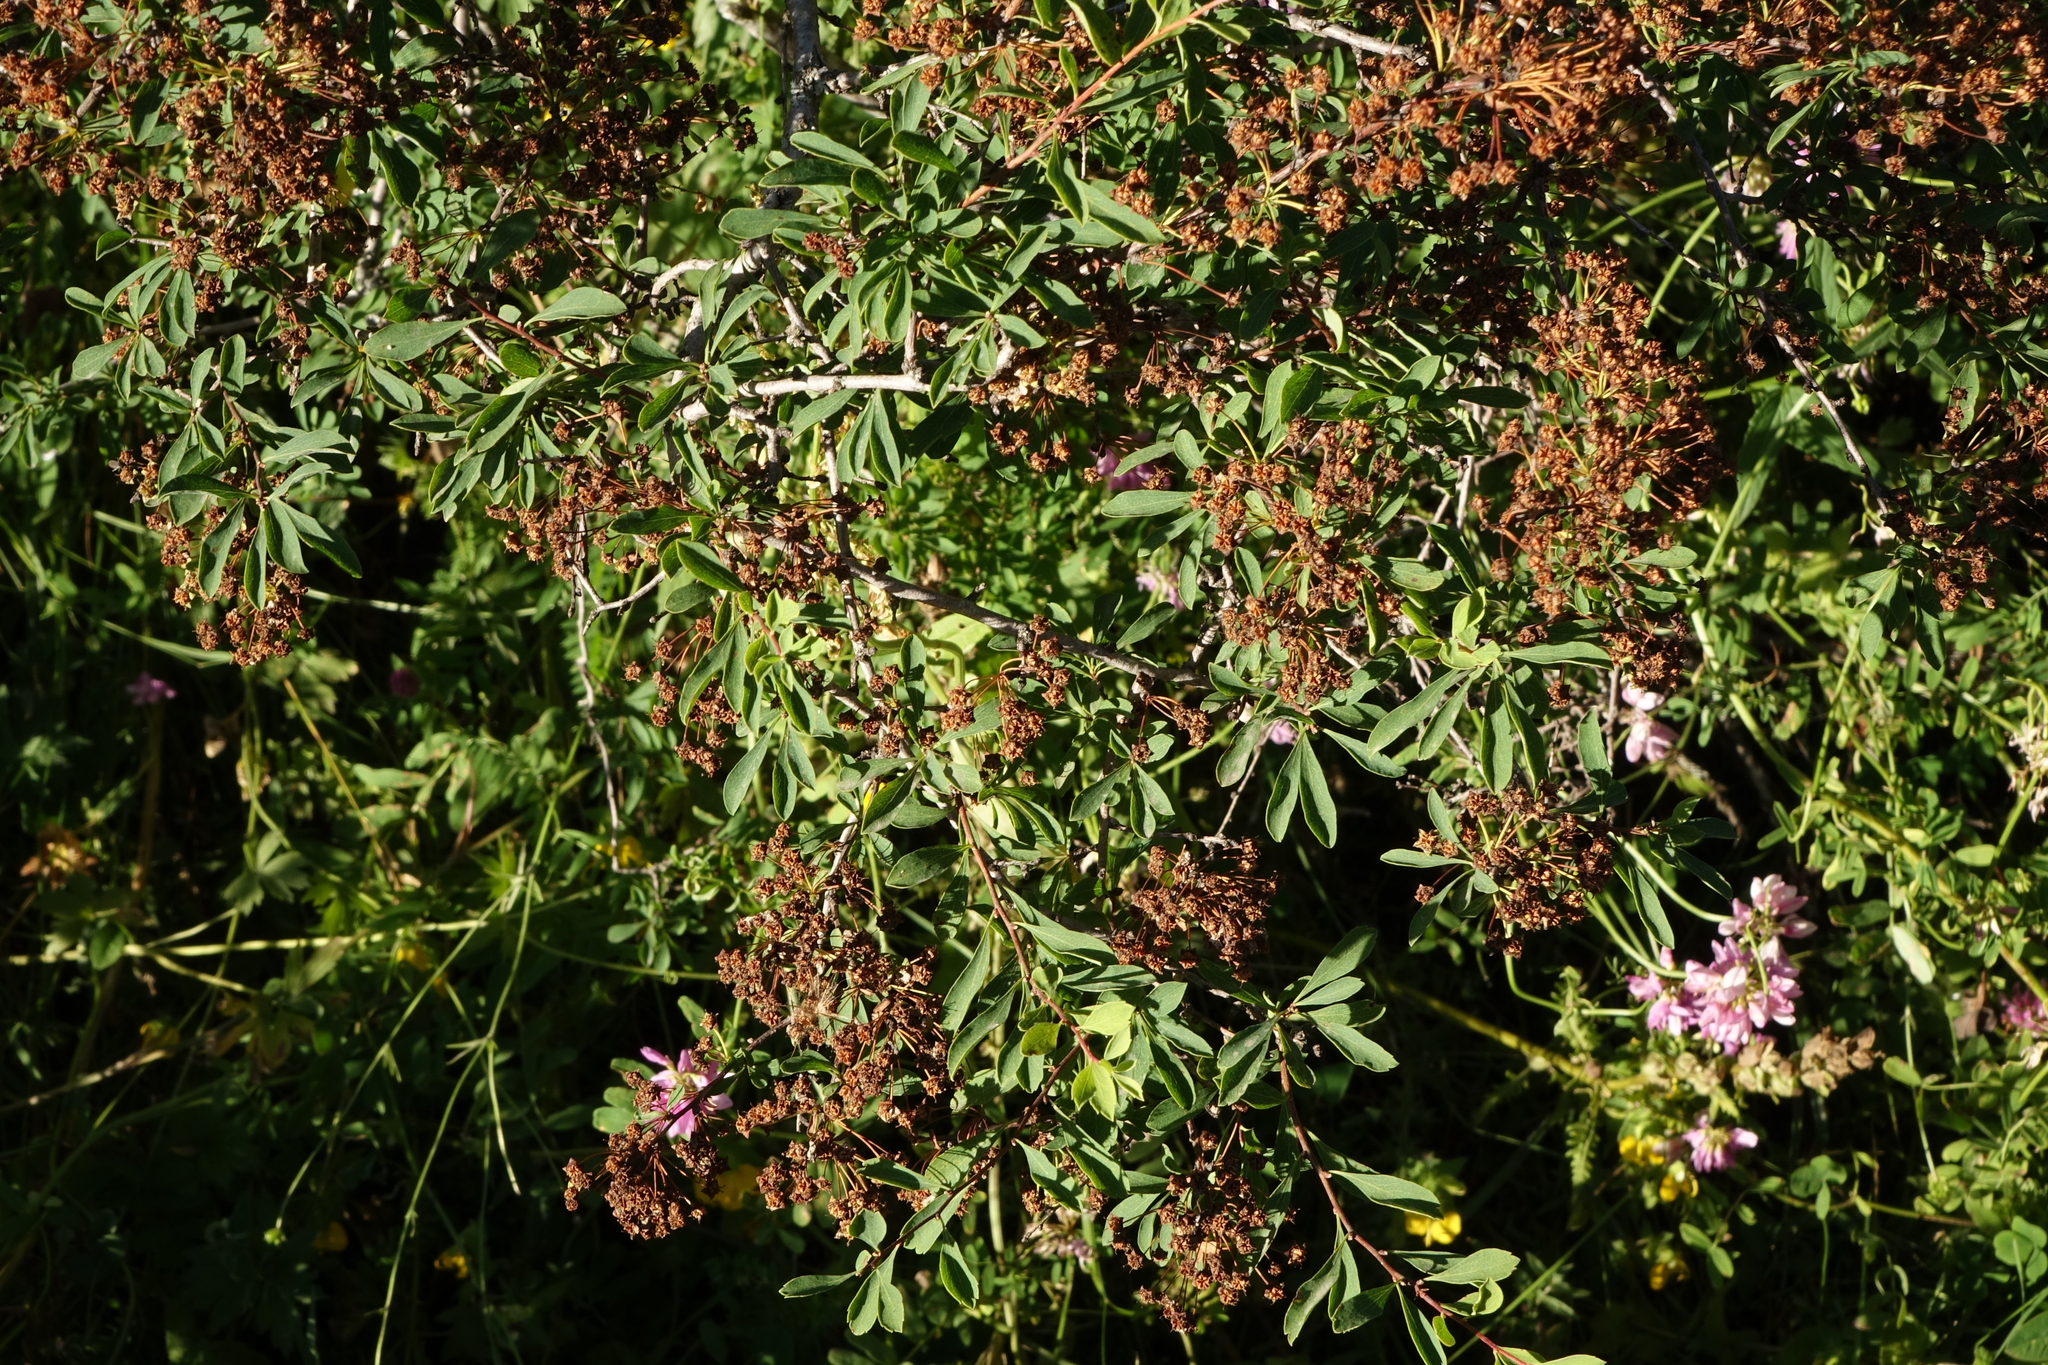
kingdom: Plantae
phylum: Tracheophyta
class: Magnoliopsida
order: Rosales
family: Rosaceae
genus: Spiraea
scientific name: Spiraea hypericifolia
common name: Iberian spirea
